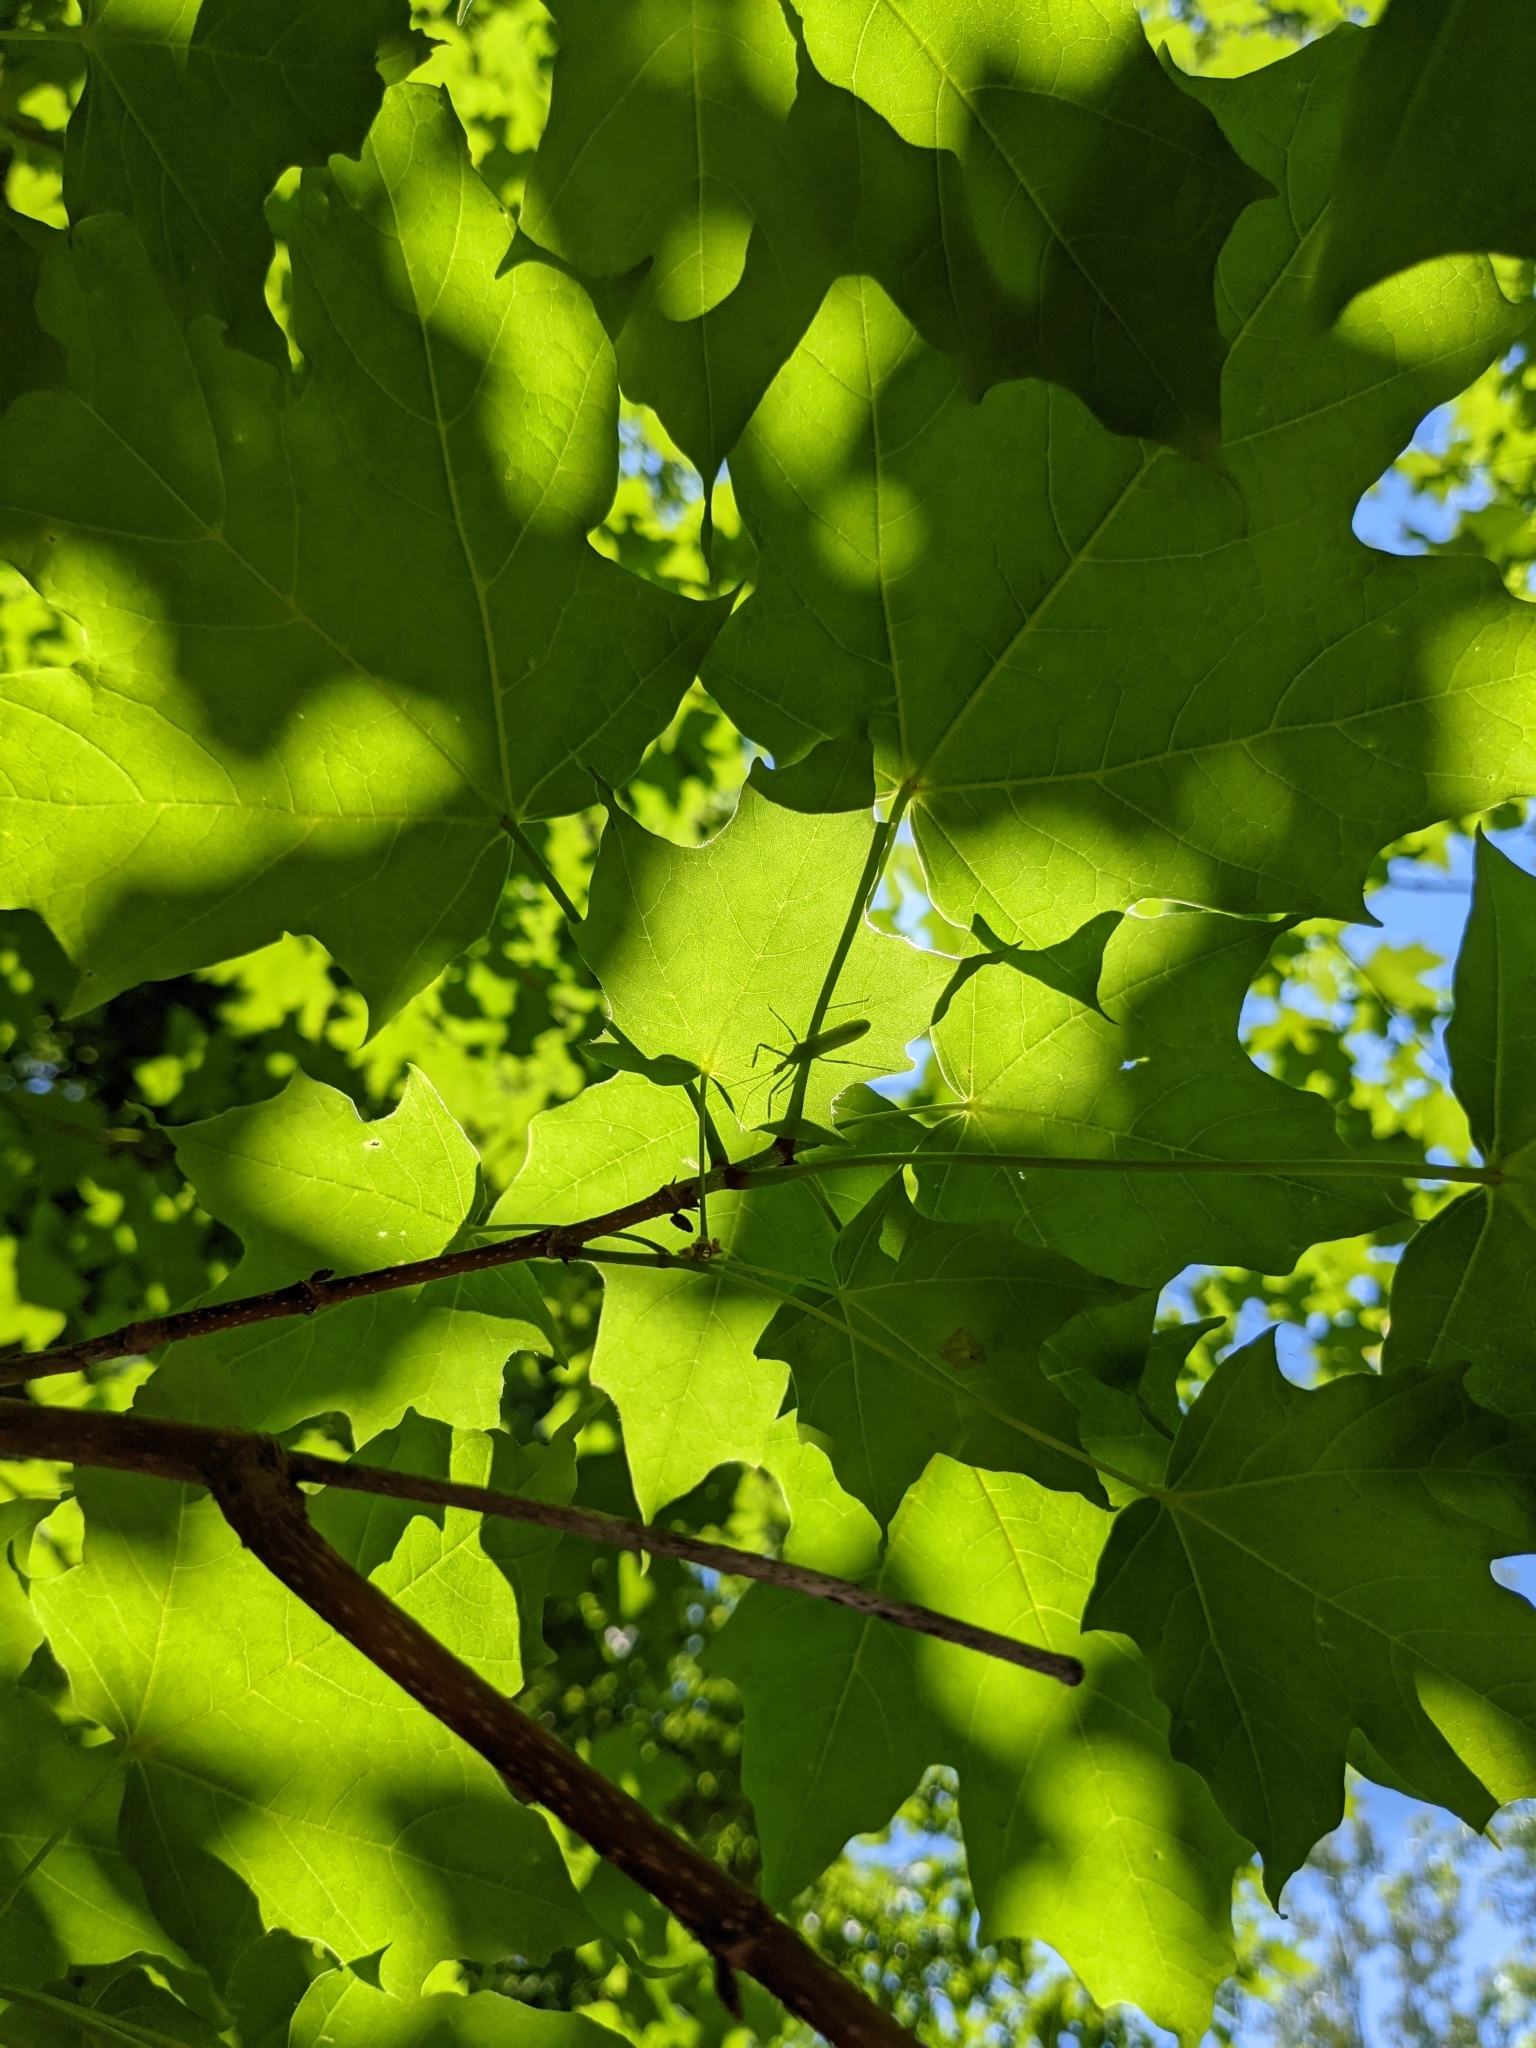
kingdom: Animalia
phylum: Arthropoda
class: Insecta
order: Hemiptera
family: Reduviidae
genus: Zelus
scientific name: Zelus luridus
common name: Pale green assassin bug
